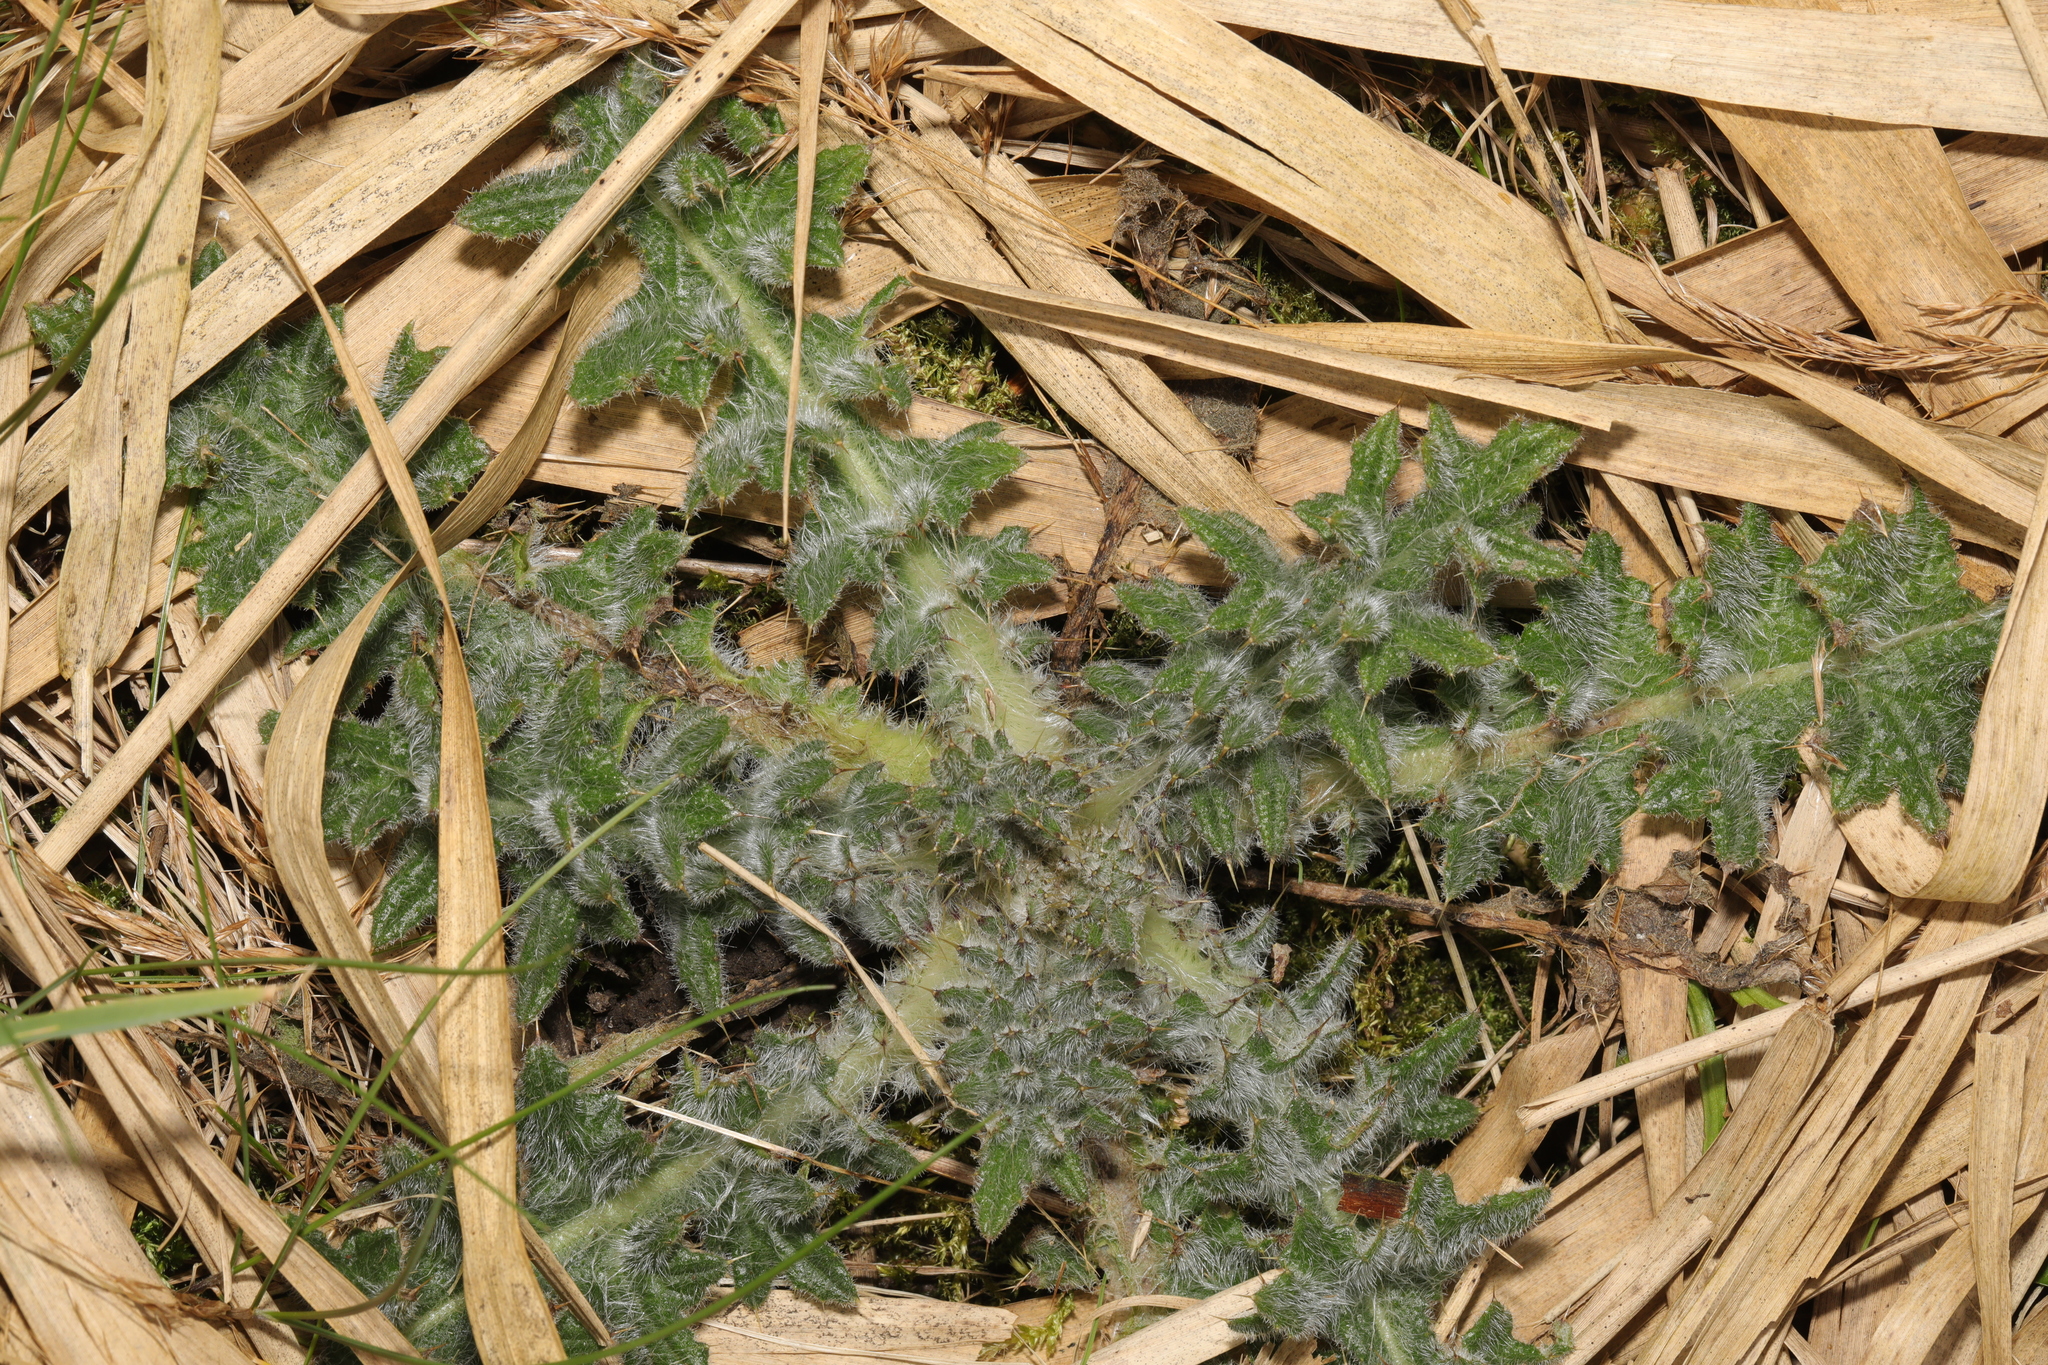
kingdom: Plantae
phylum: Tracheophyta
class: Magnoliopsida
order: Asterales
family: Asteraceae
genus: Cirsium
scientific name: Cirsium vulgare
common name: Bull thistle
